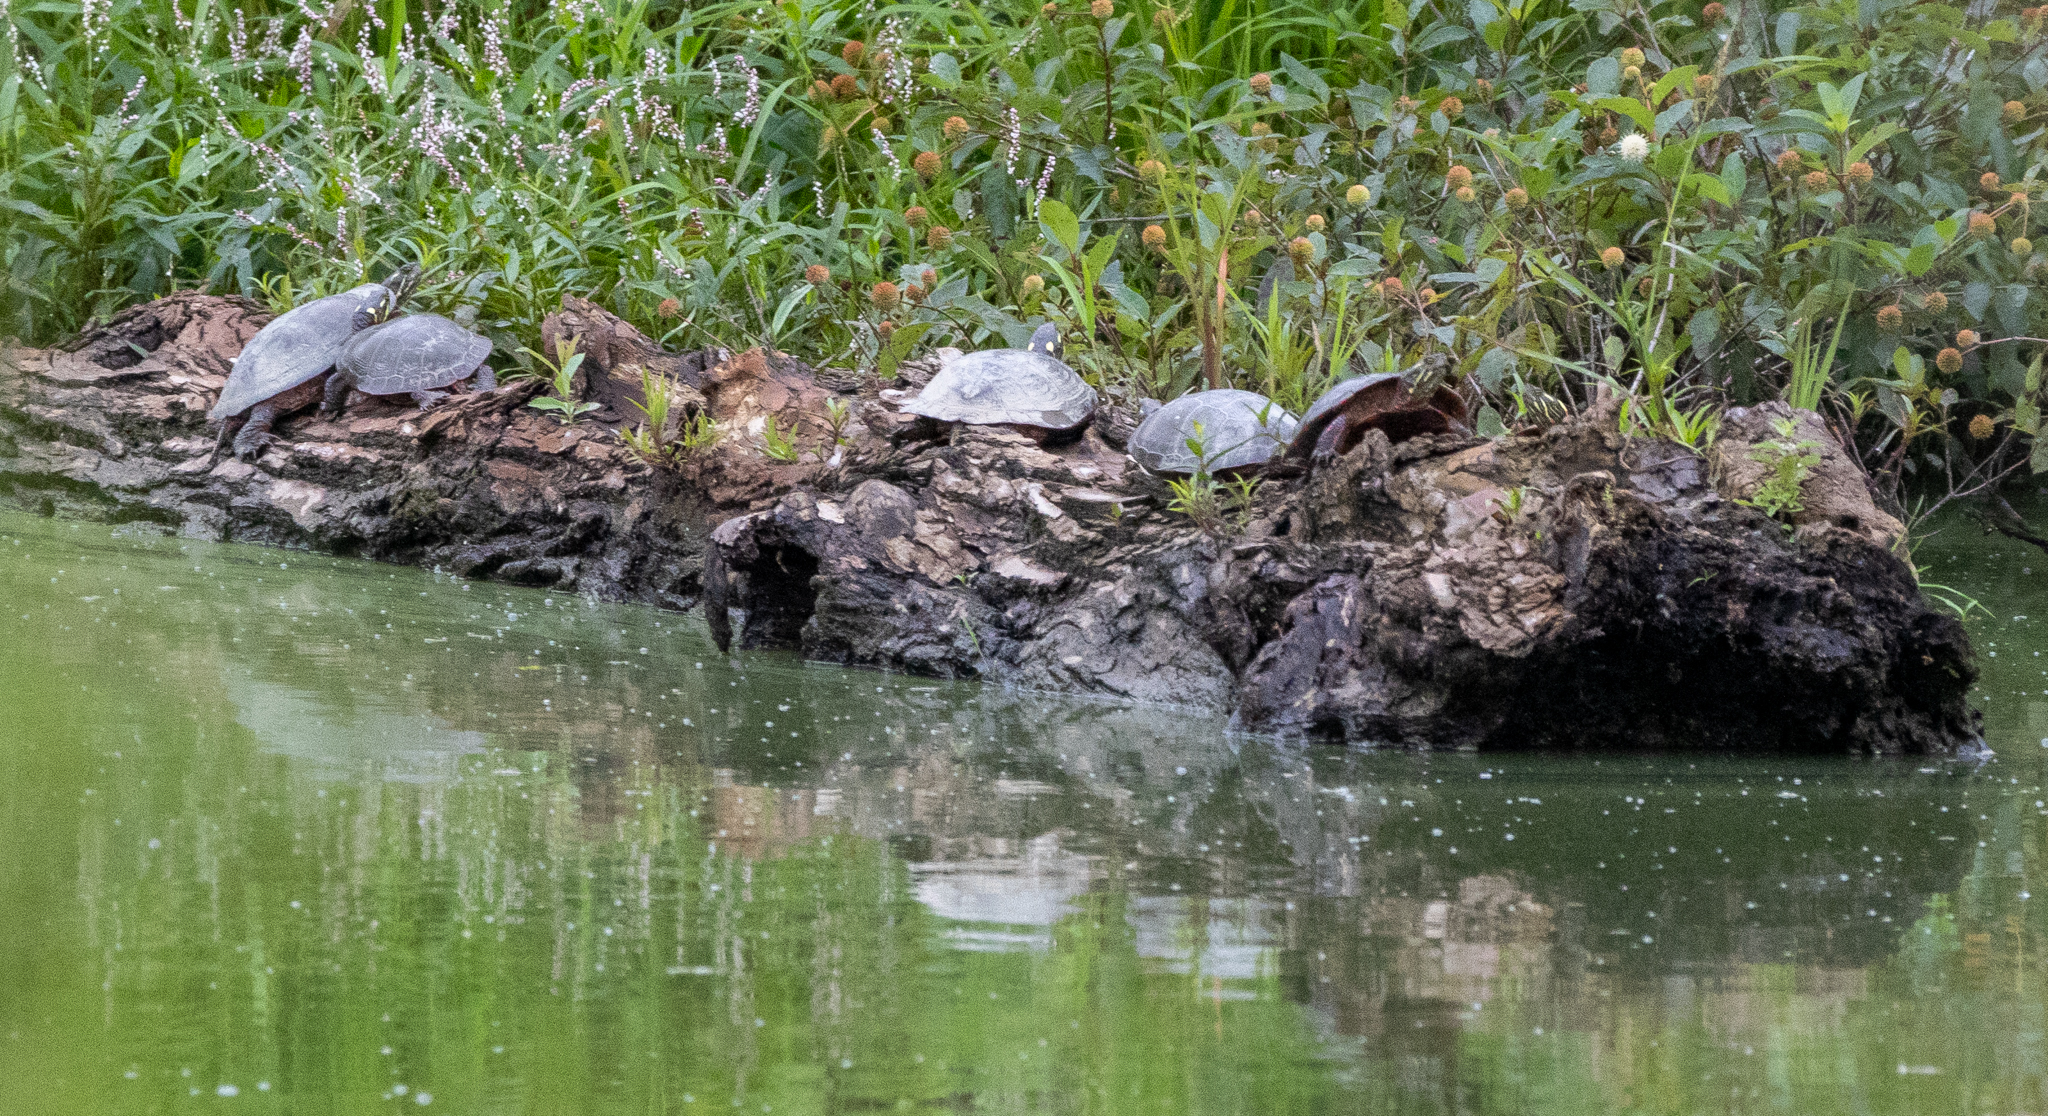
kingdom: Animalia
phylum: Chordata
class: Testudines
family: Emydidae
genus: Chrysemys
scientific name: Chrysemys picta
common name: Painted turtle
